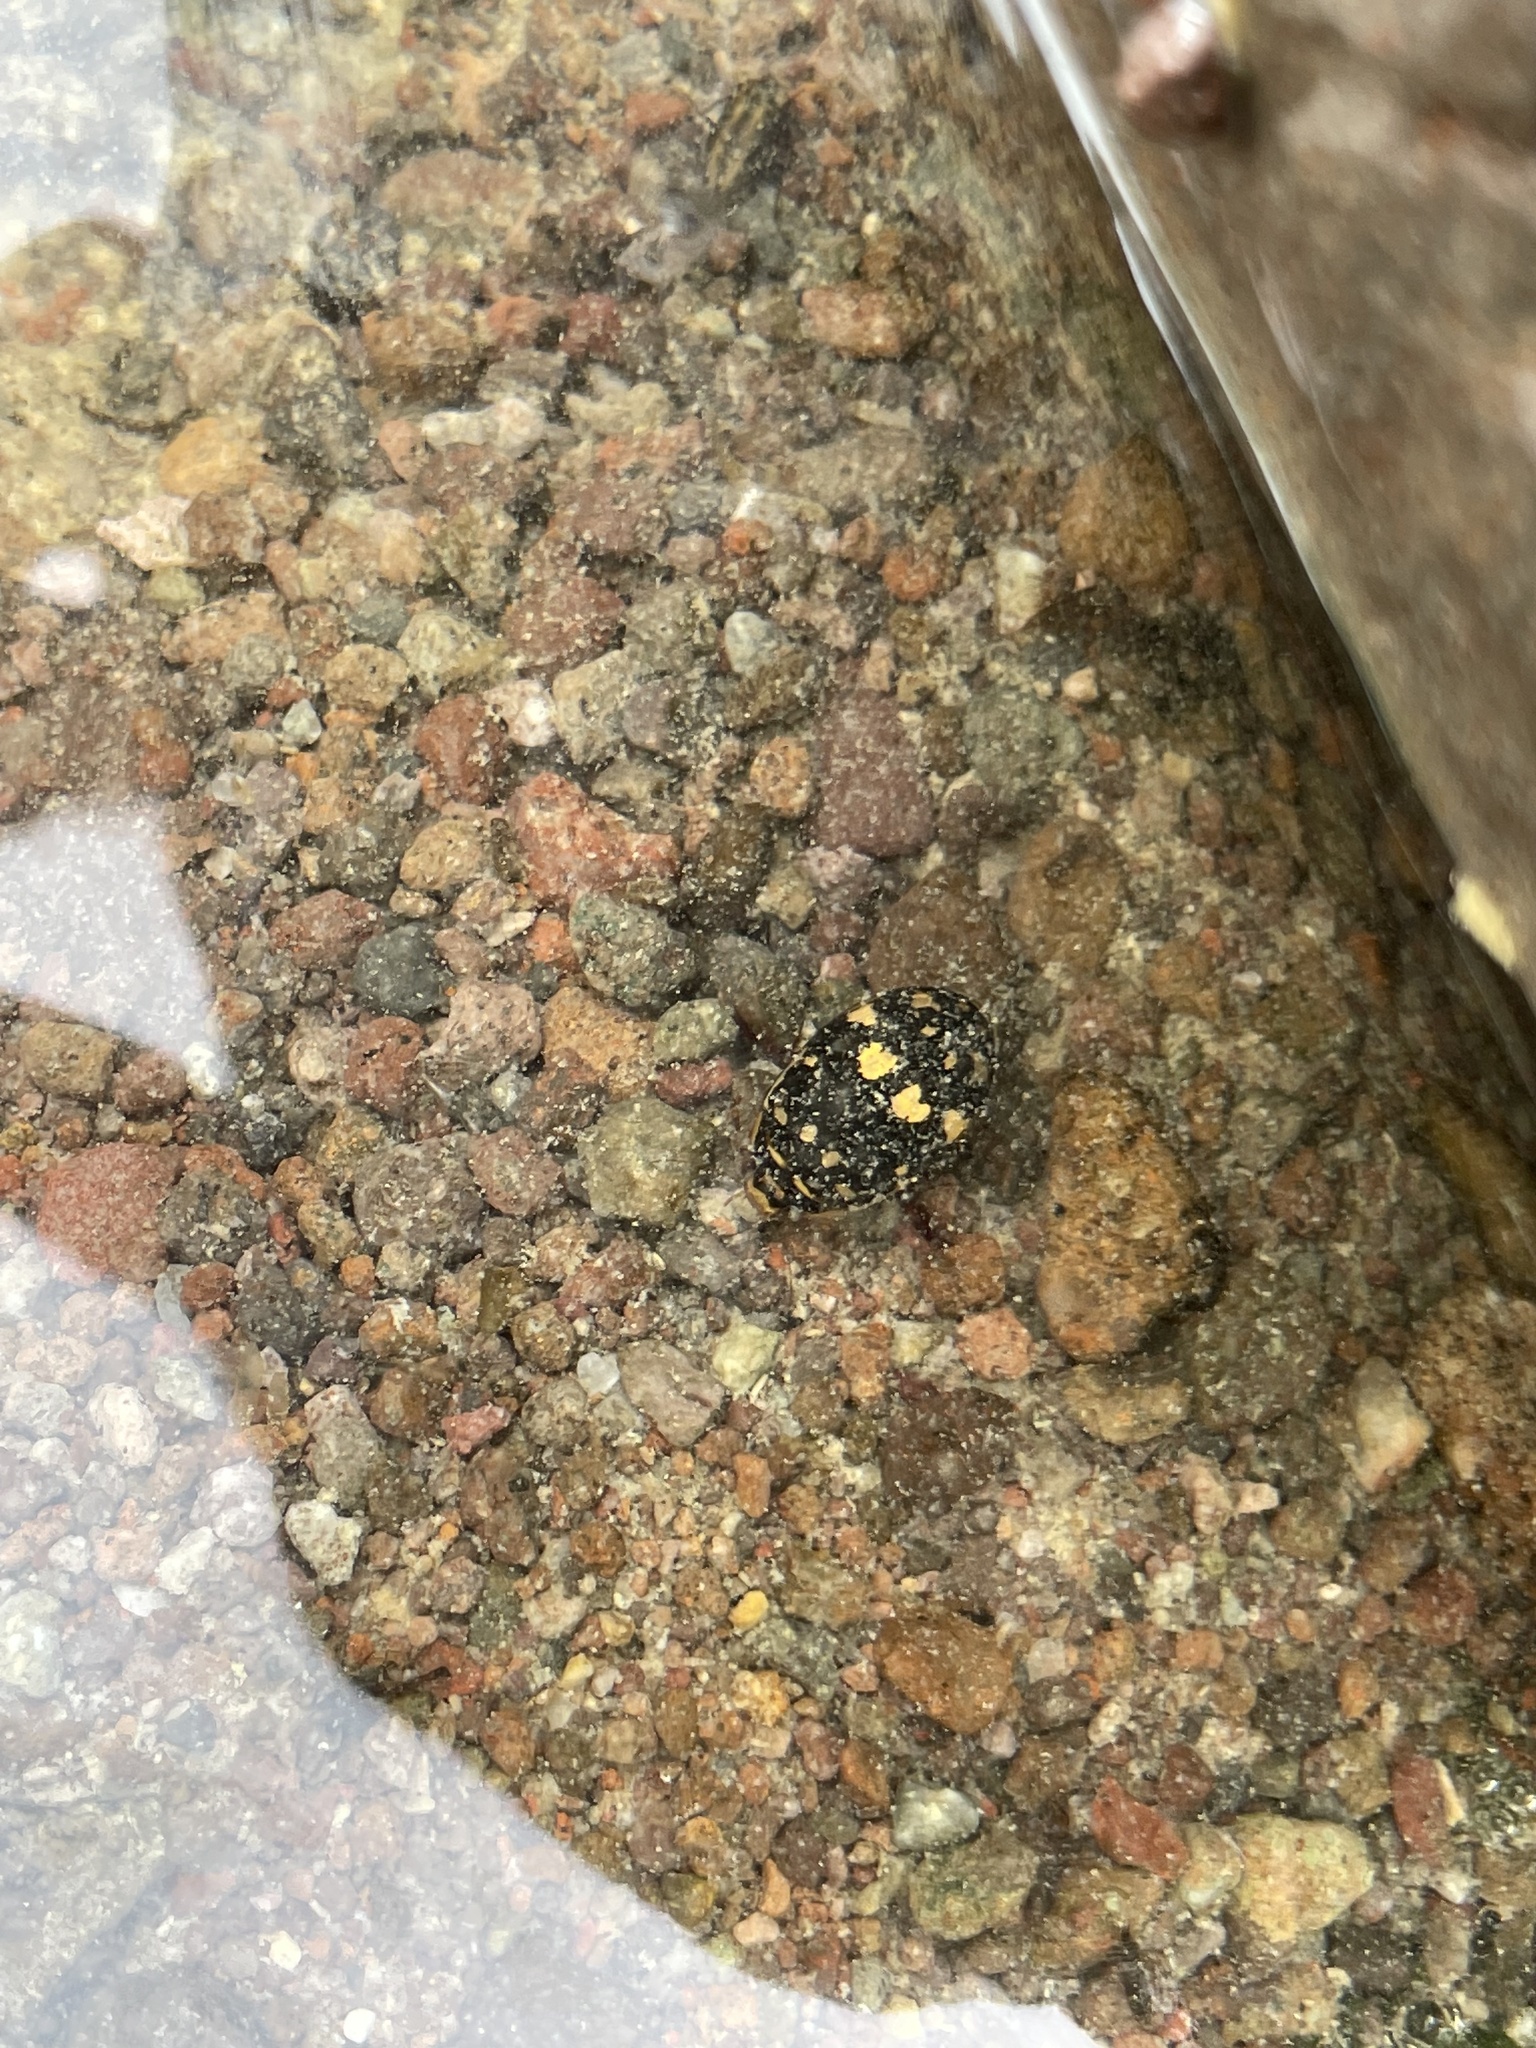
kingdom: Animalia
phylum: Arthropoda
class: Insecta
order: Coleoptera
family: Dytiscidae
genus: Thermonectus
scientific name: Thermonectus marmoratus
